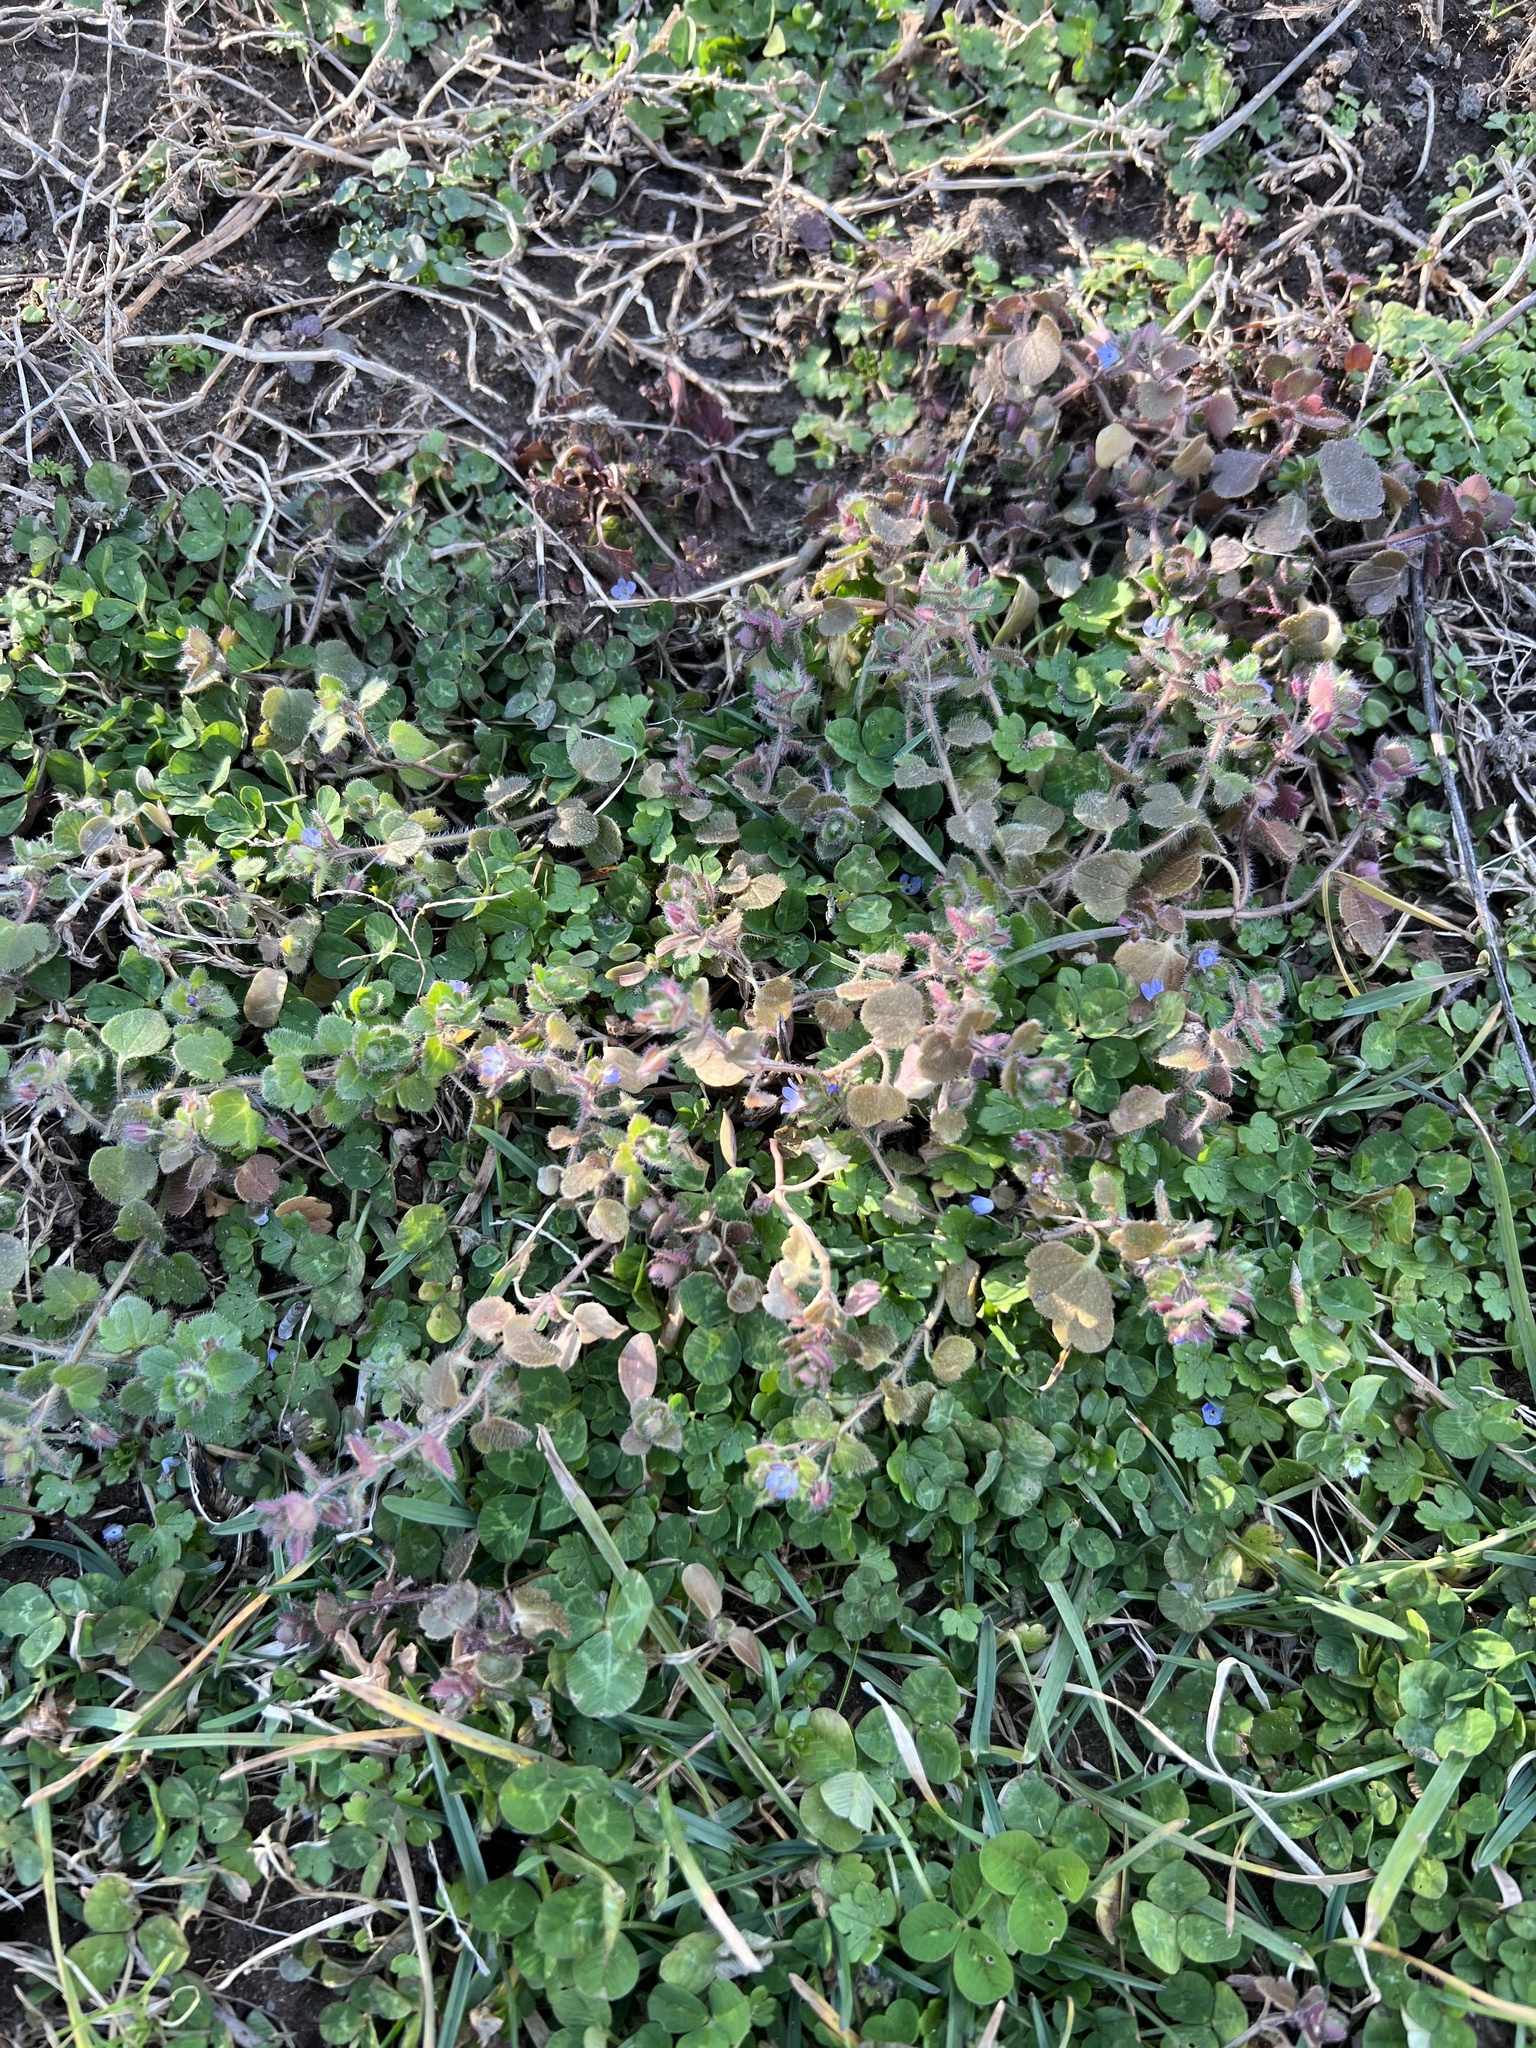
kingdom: Plantae
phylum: Tracheophyta
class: Magnoliopsida
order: Lamiales
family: Plantaginaceae
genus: Veronica
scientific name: Veronica hederifolia
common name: Ivy-leaved speedwell
